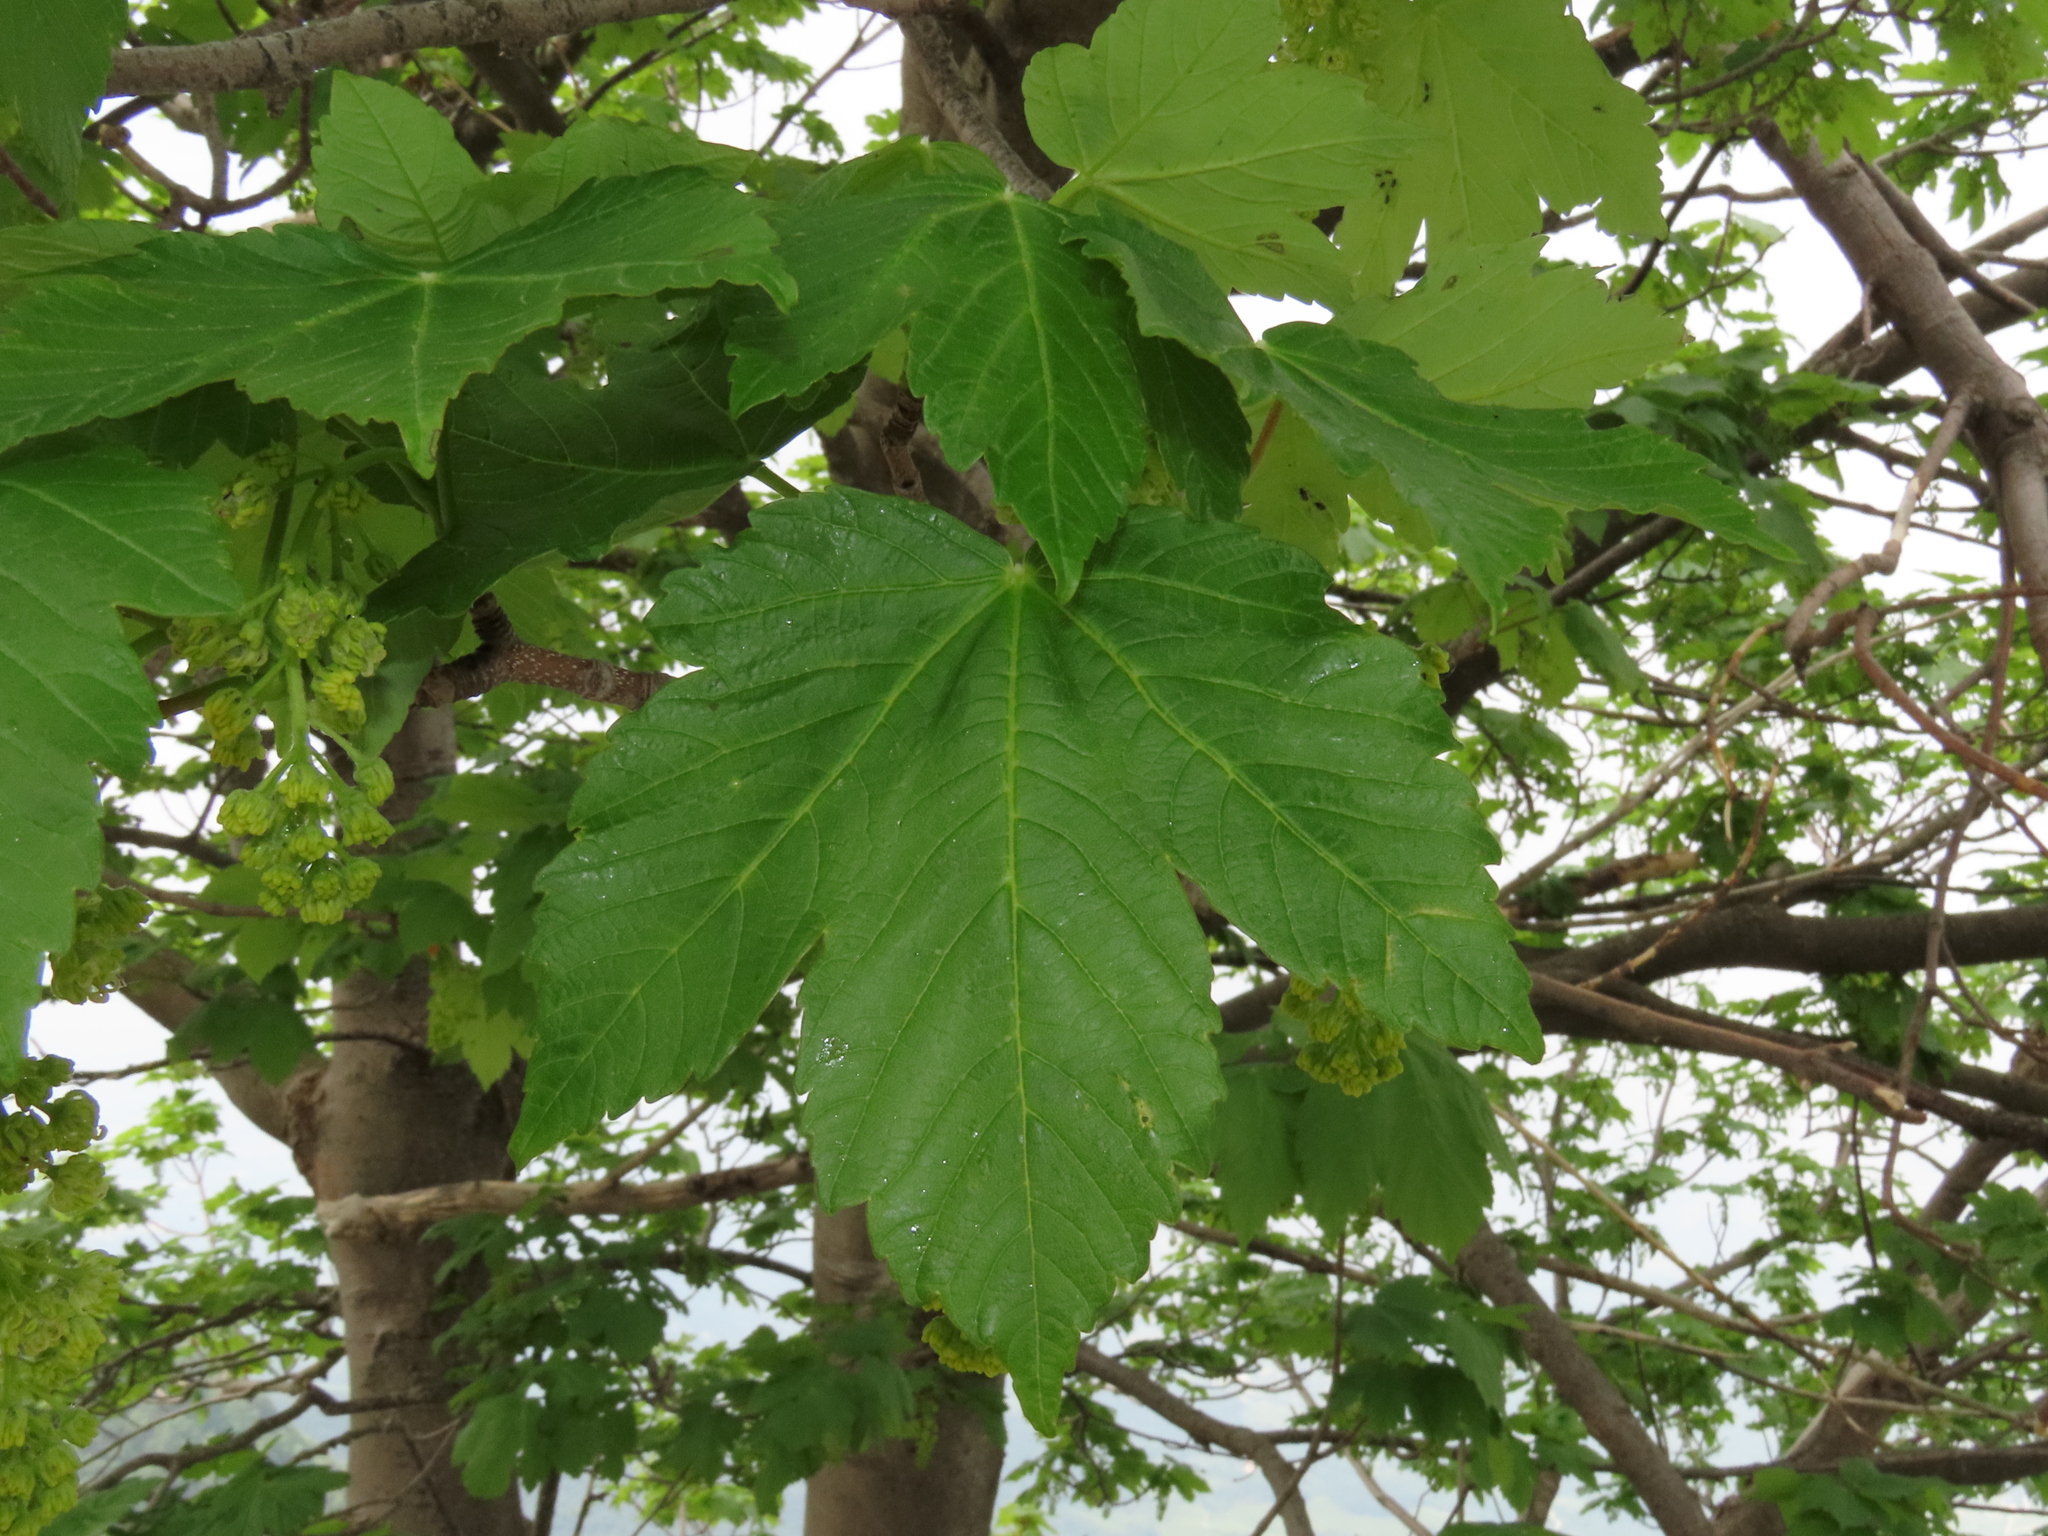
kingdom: Plantae
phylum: Tracheophyta
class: Magnoliopsida
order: Sapindales
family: Sapindaceae
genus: Acer
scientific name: Acer pseudoplatanus
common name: Sycamore
